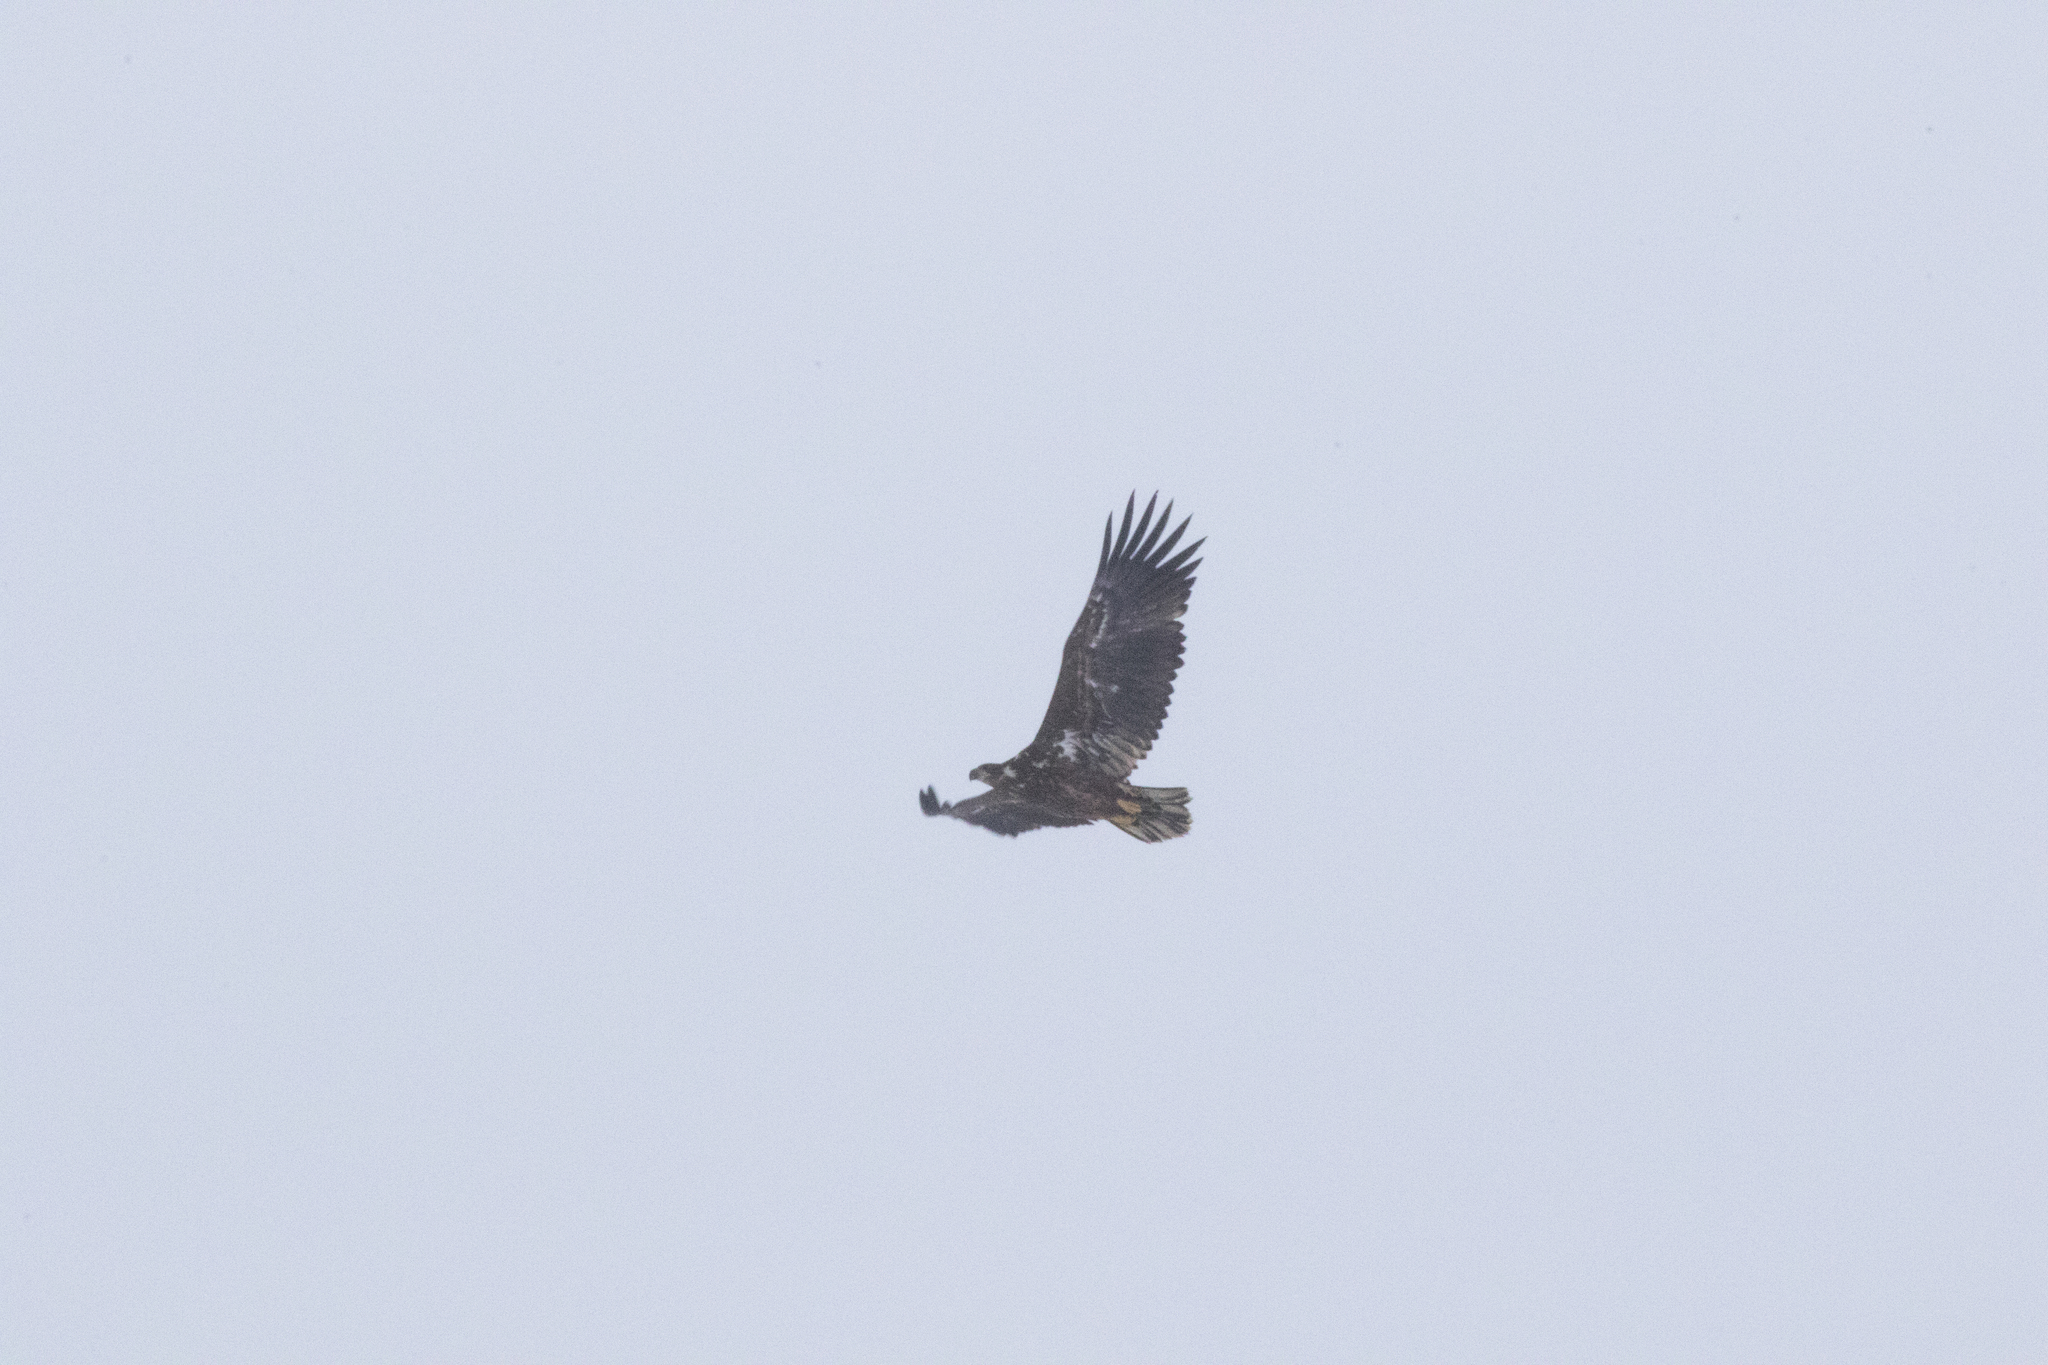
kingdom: Animalia
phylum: Chordata
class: Aves
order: Accipitriformes
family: Accipitridae
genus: Haliaeetus
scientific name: Haliaeetus albicilla
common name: White-tailed eagle
